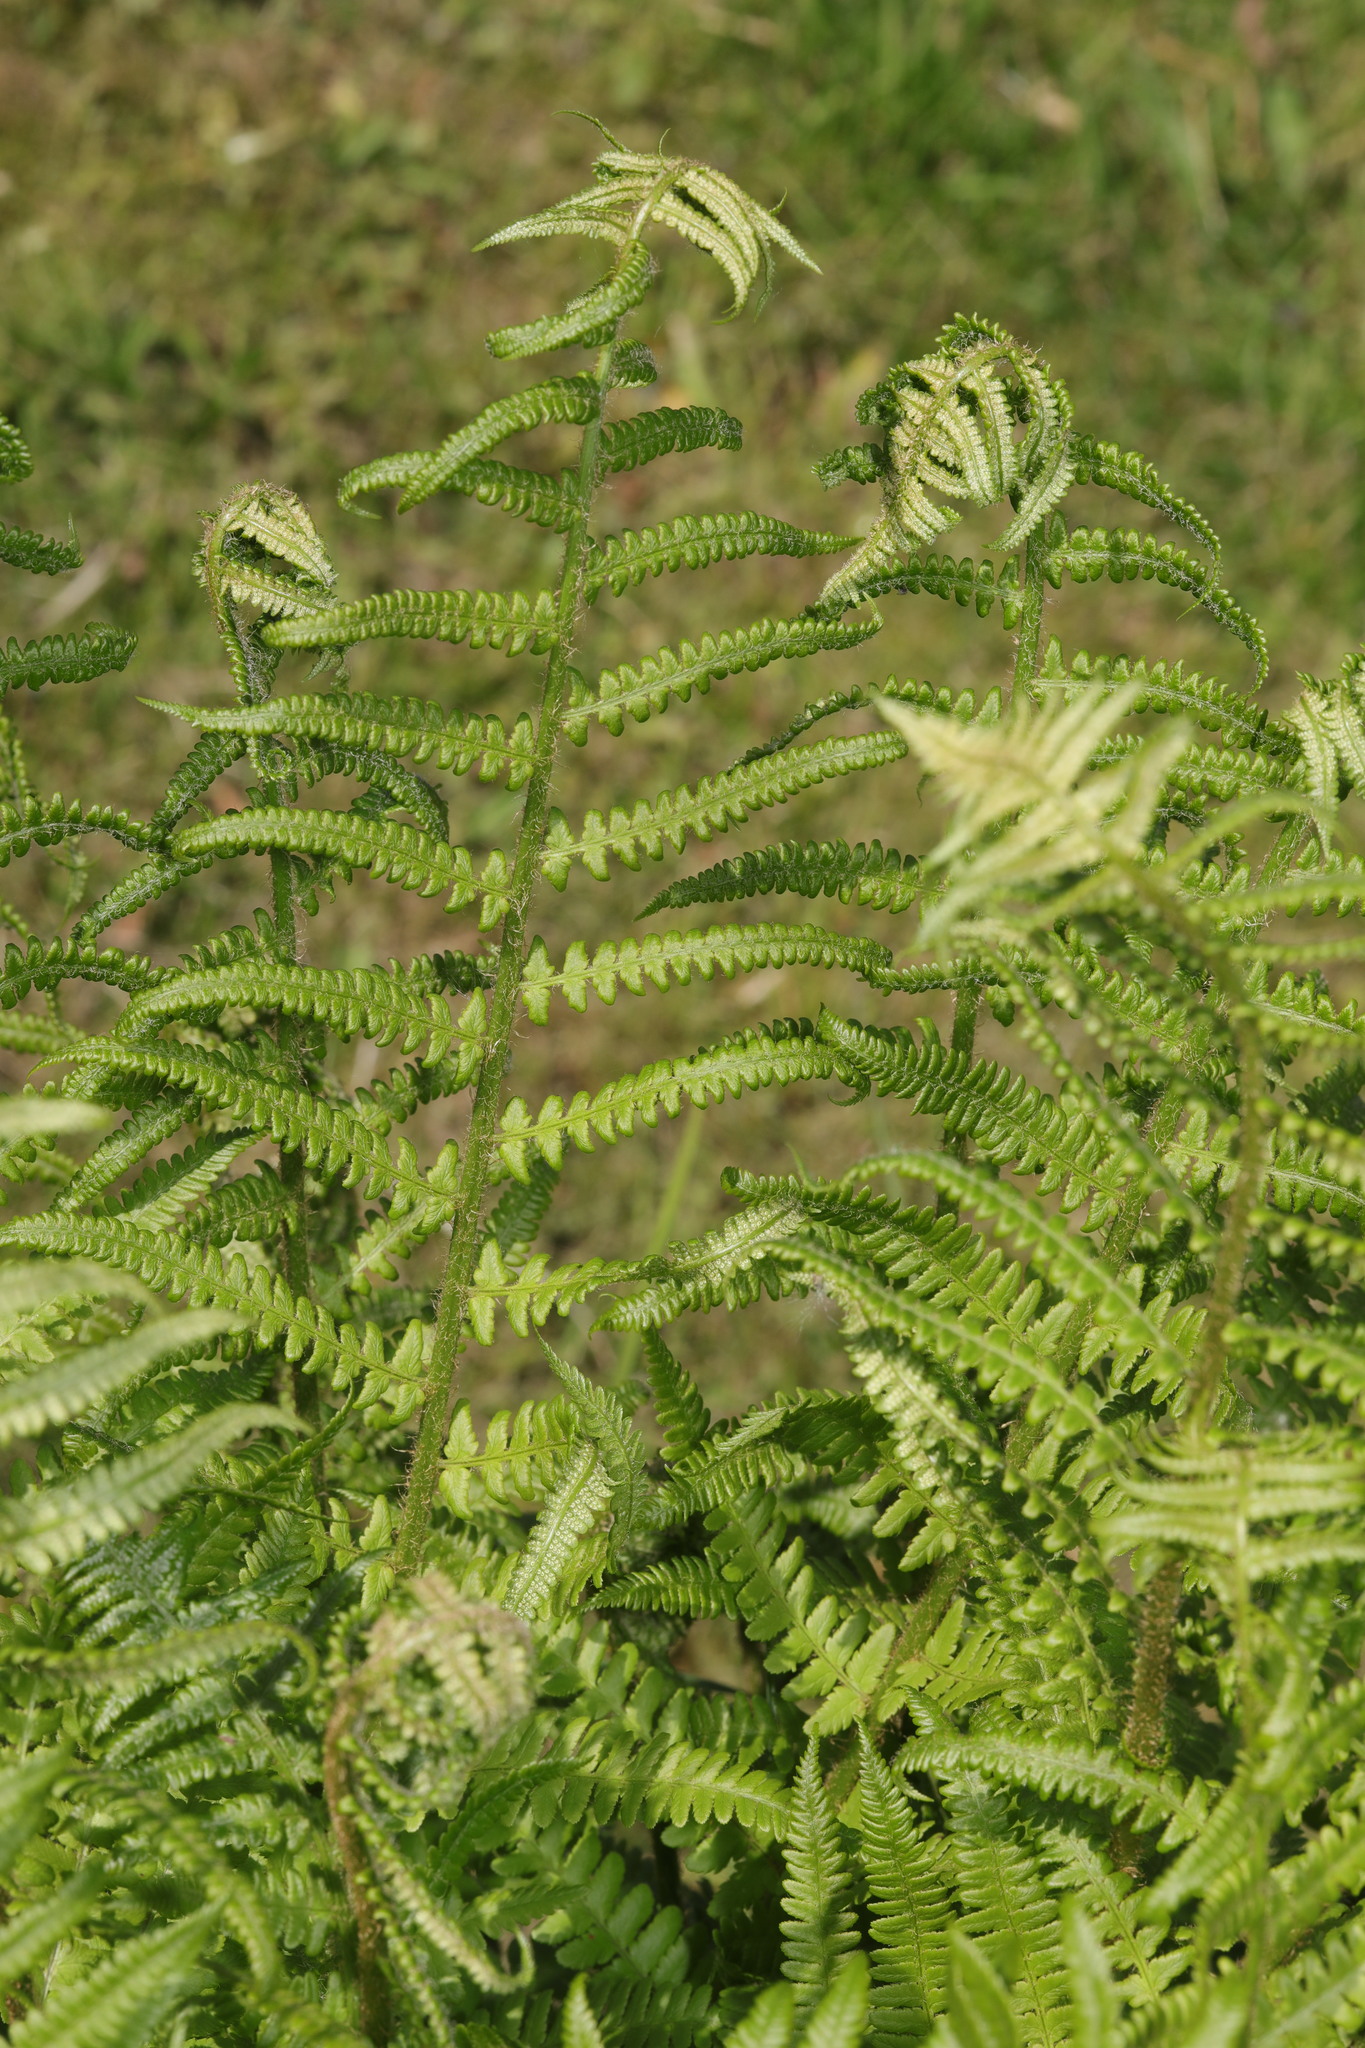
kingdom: Plantae
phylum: Tracheophyta
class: Polypodiopsida
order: Polypodiales
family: Dryopteridaceae
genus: Dryopteris
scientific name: Dryopteris filix-mas
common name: Male fern
